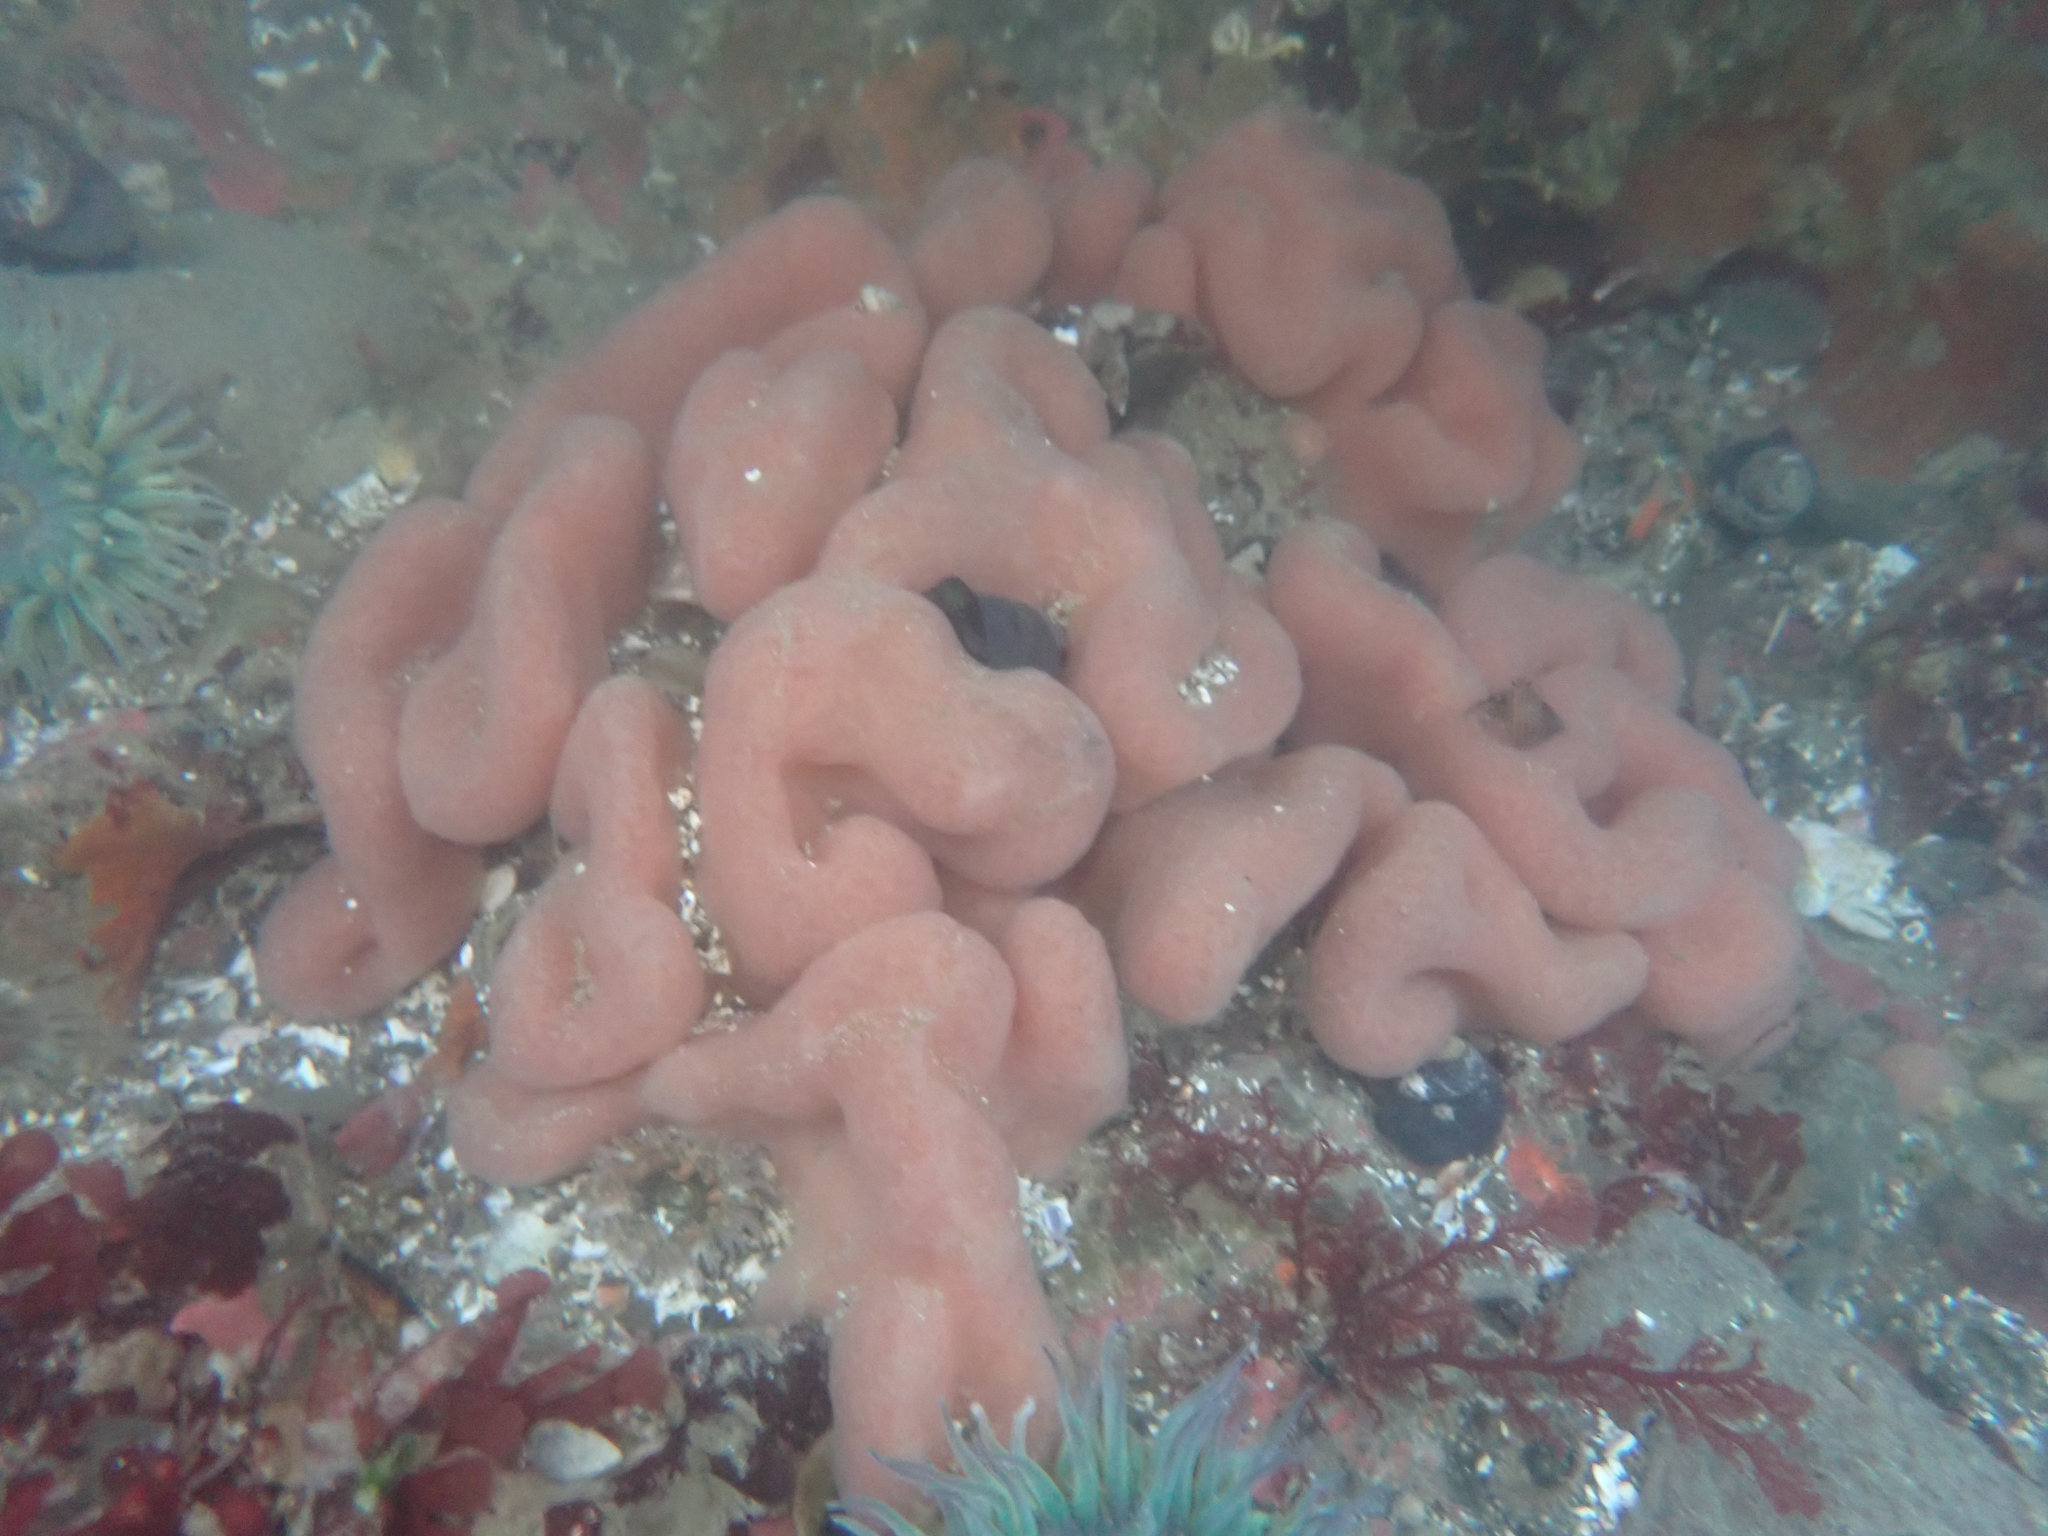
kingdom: Animalia
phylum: Chordata
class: Ascidiacea
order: Aplousobranchia
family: Polycitoridae
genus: Cystodytes
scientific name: Cystodytes lobatus
